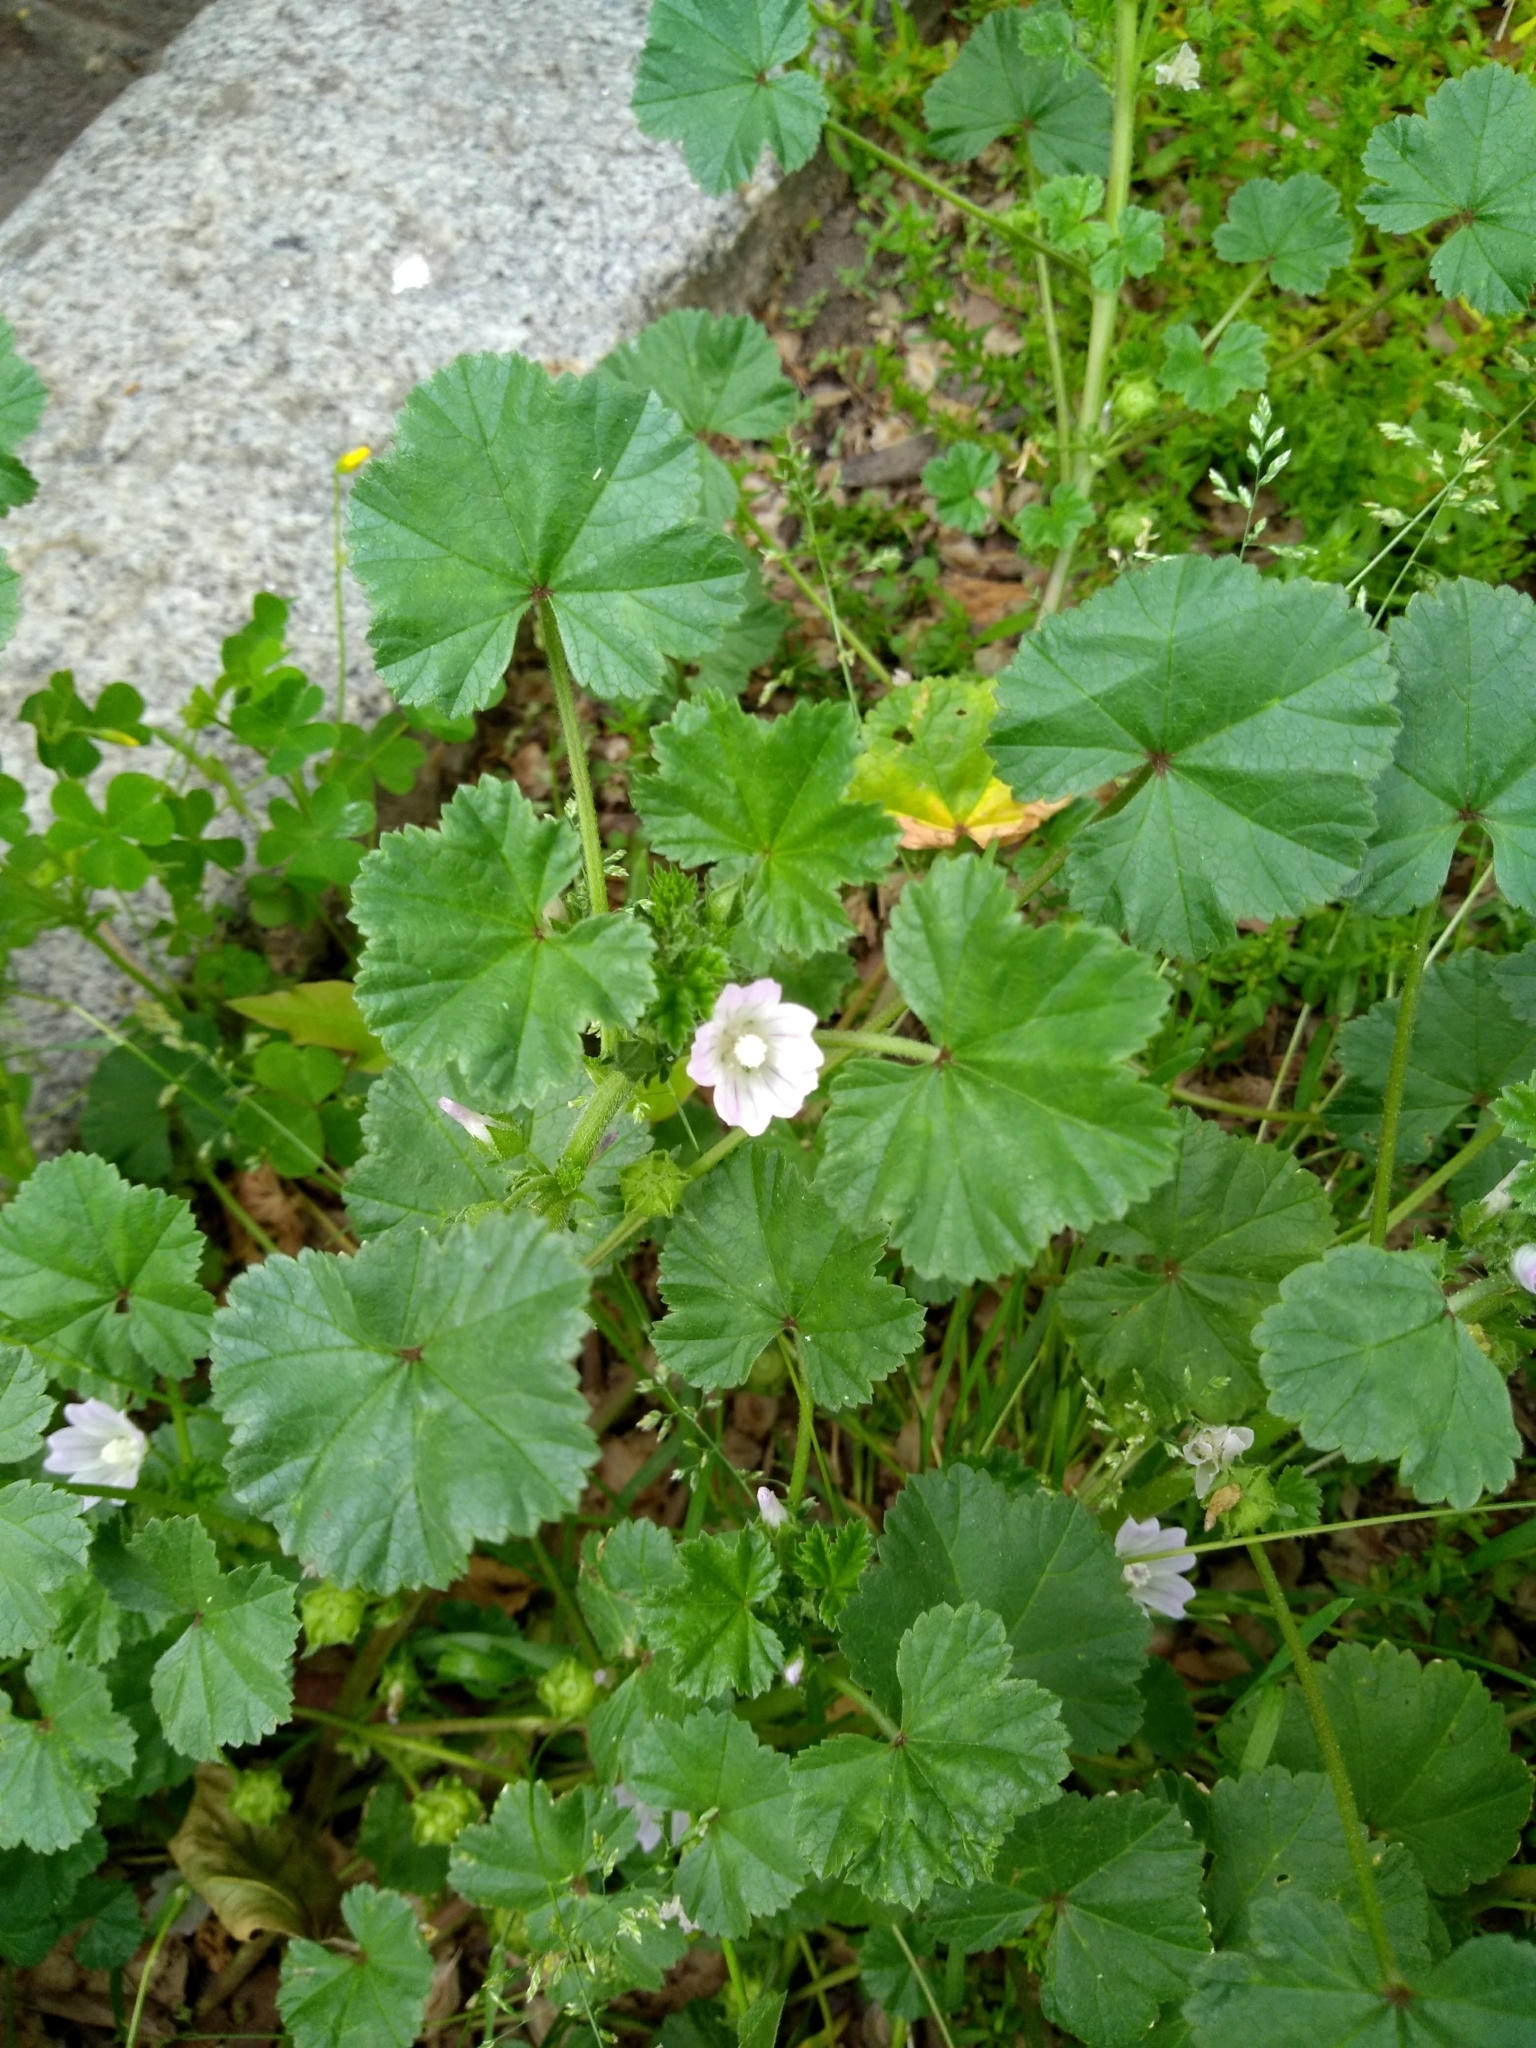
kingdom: Plantae
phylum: Tracheophyta
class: Magnoliopsida
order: Malvales
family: Malvaceae
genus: Malva
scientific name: Malva neglecta
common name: Common mallow
